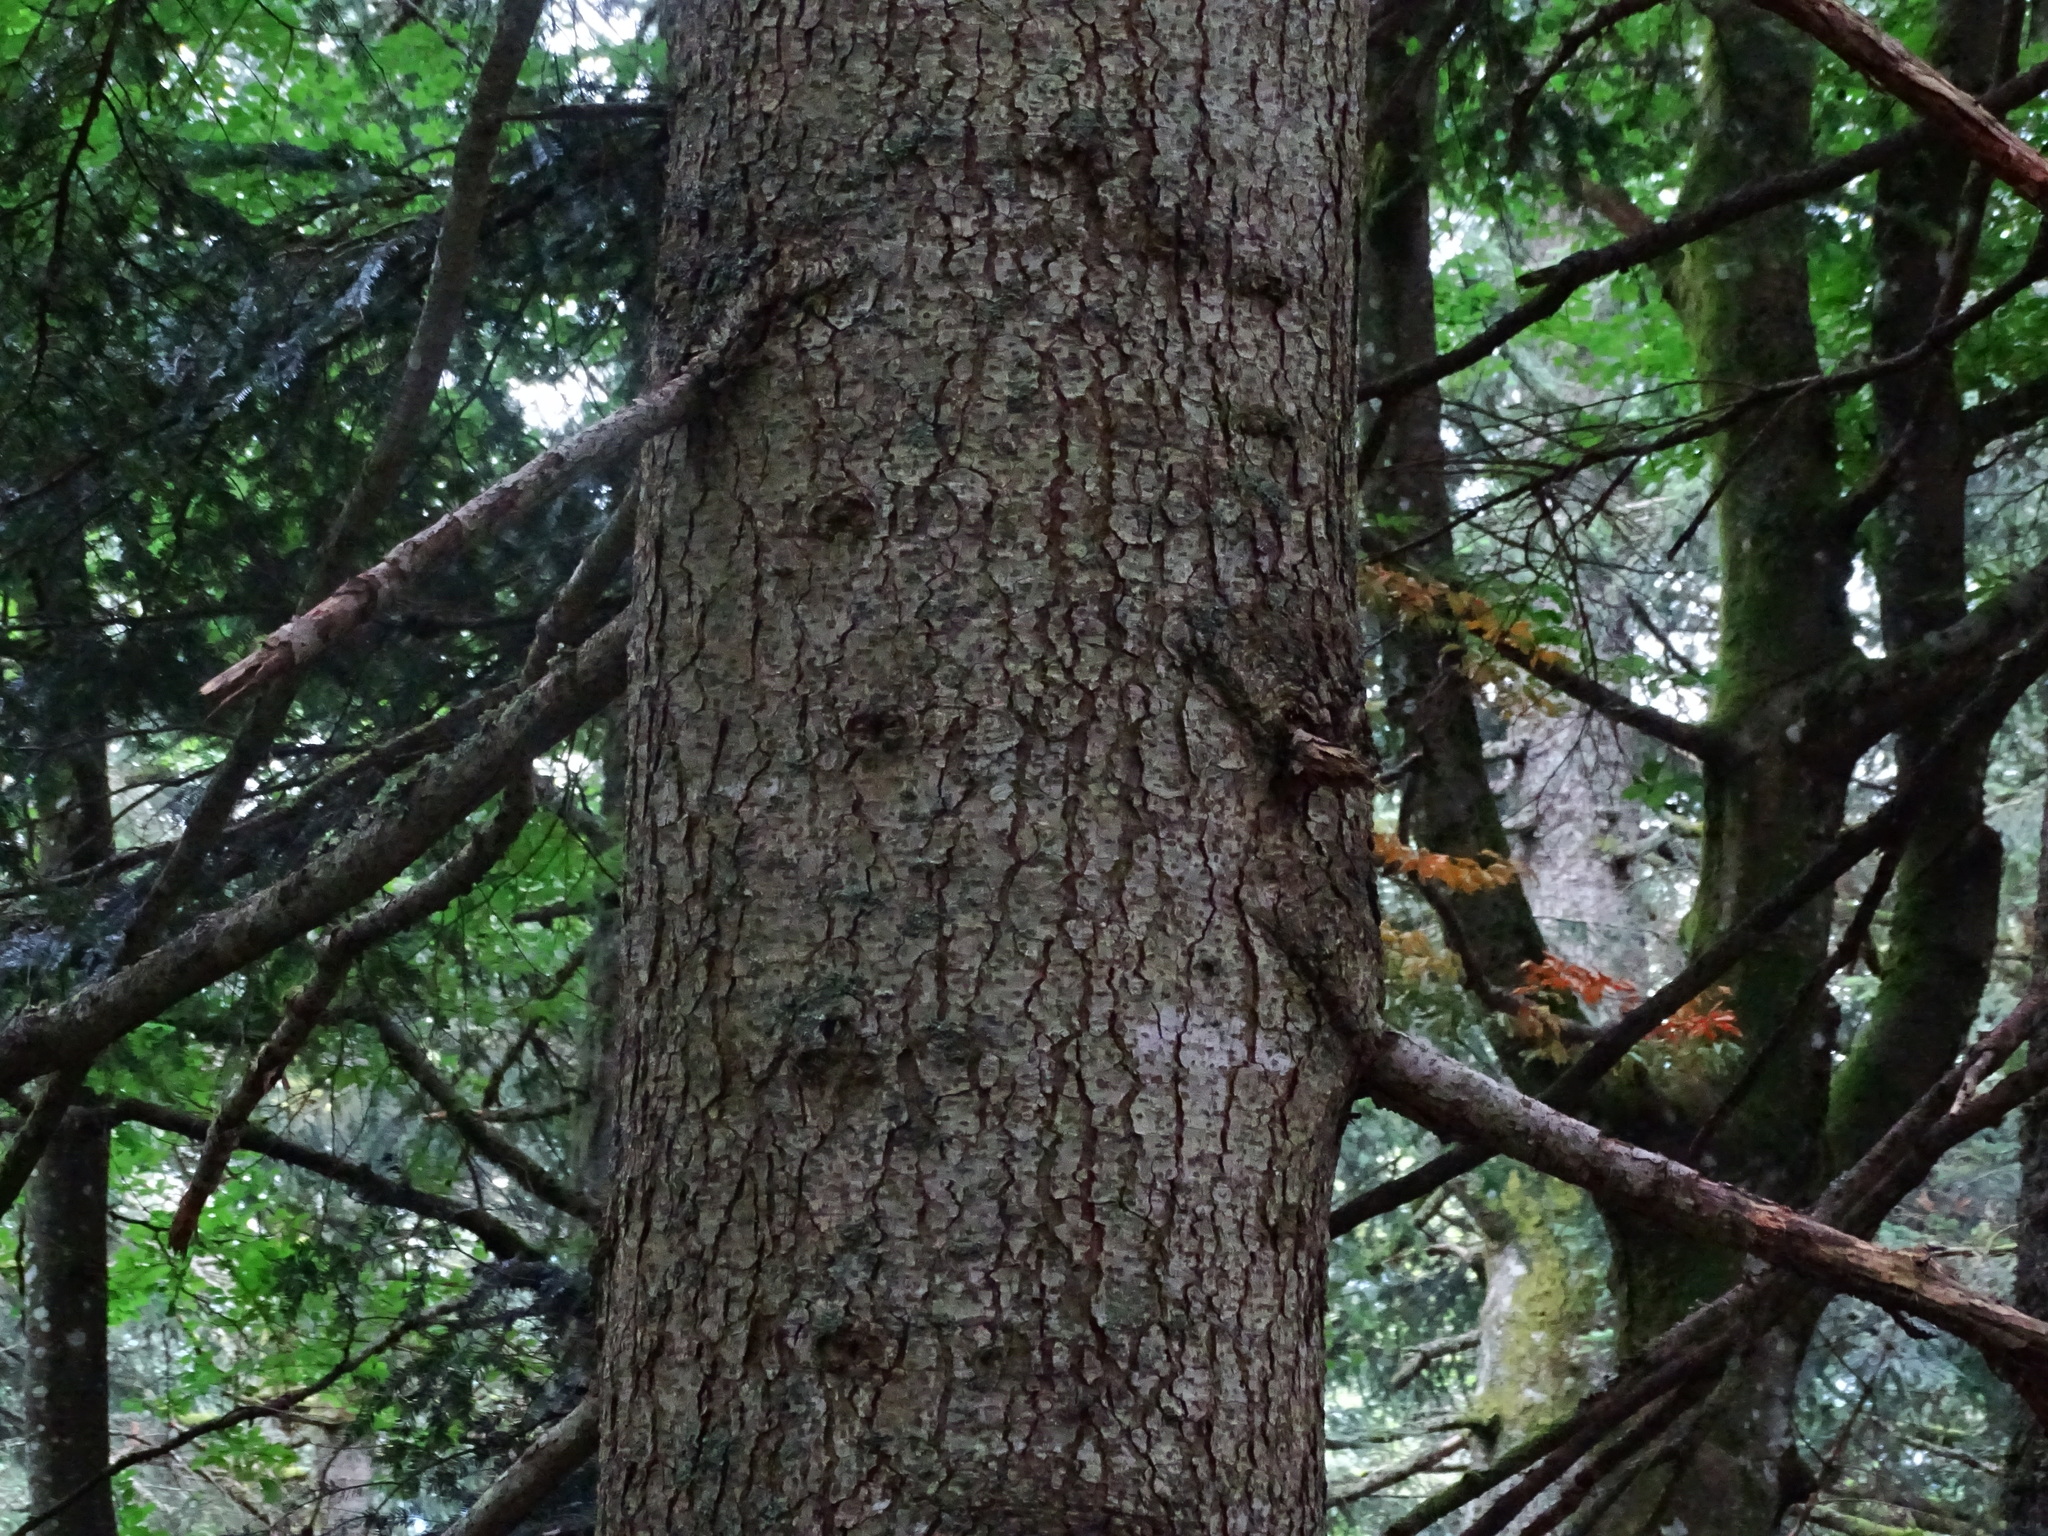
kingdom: Plantae
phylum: Tracheophyta
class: Pinopsida
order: Pinales
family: Pinaceae
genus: Abies
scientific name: Abies alba
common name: Silver fir
